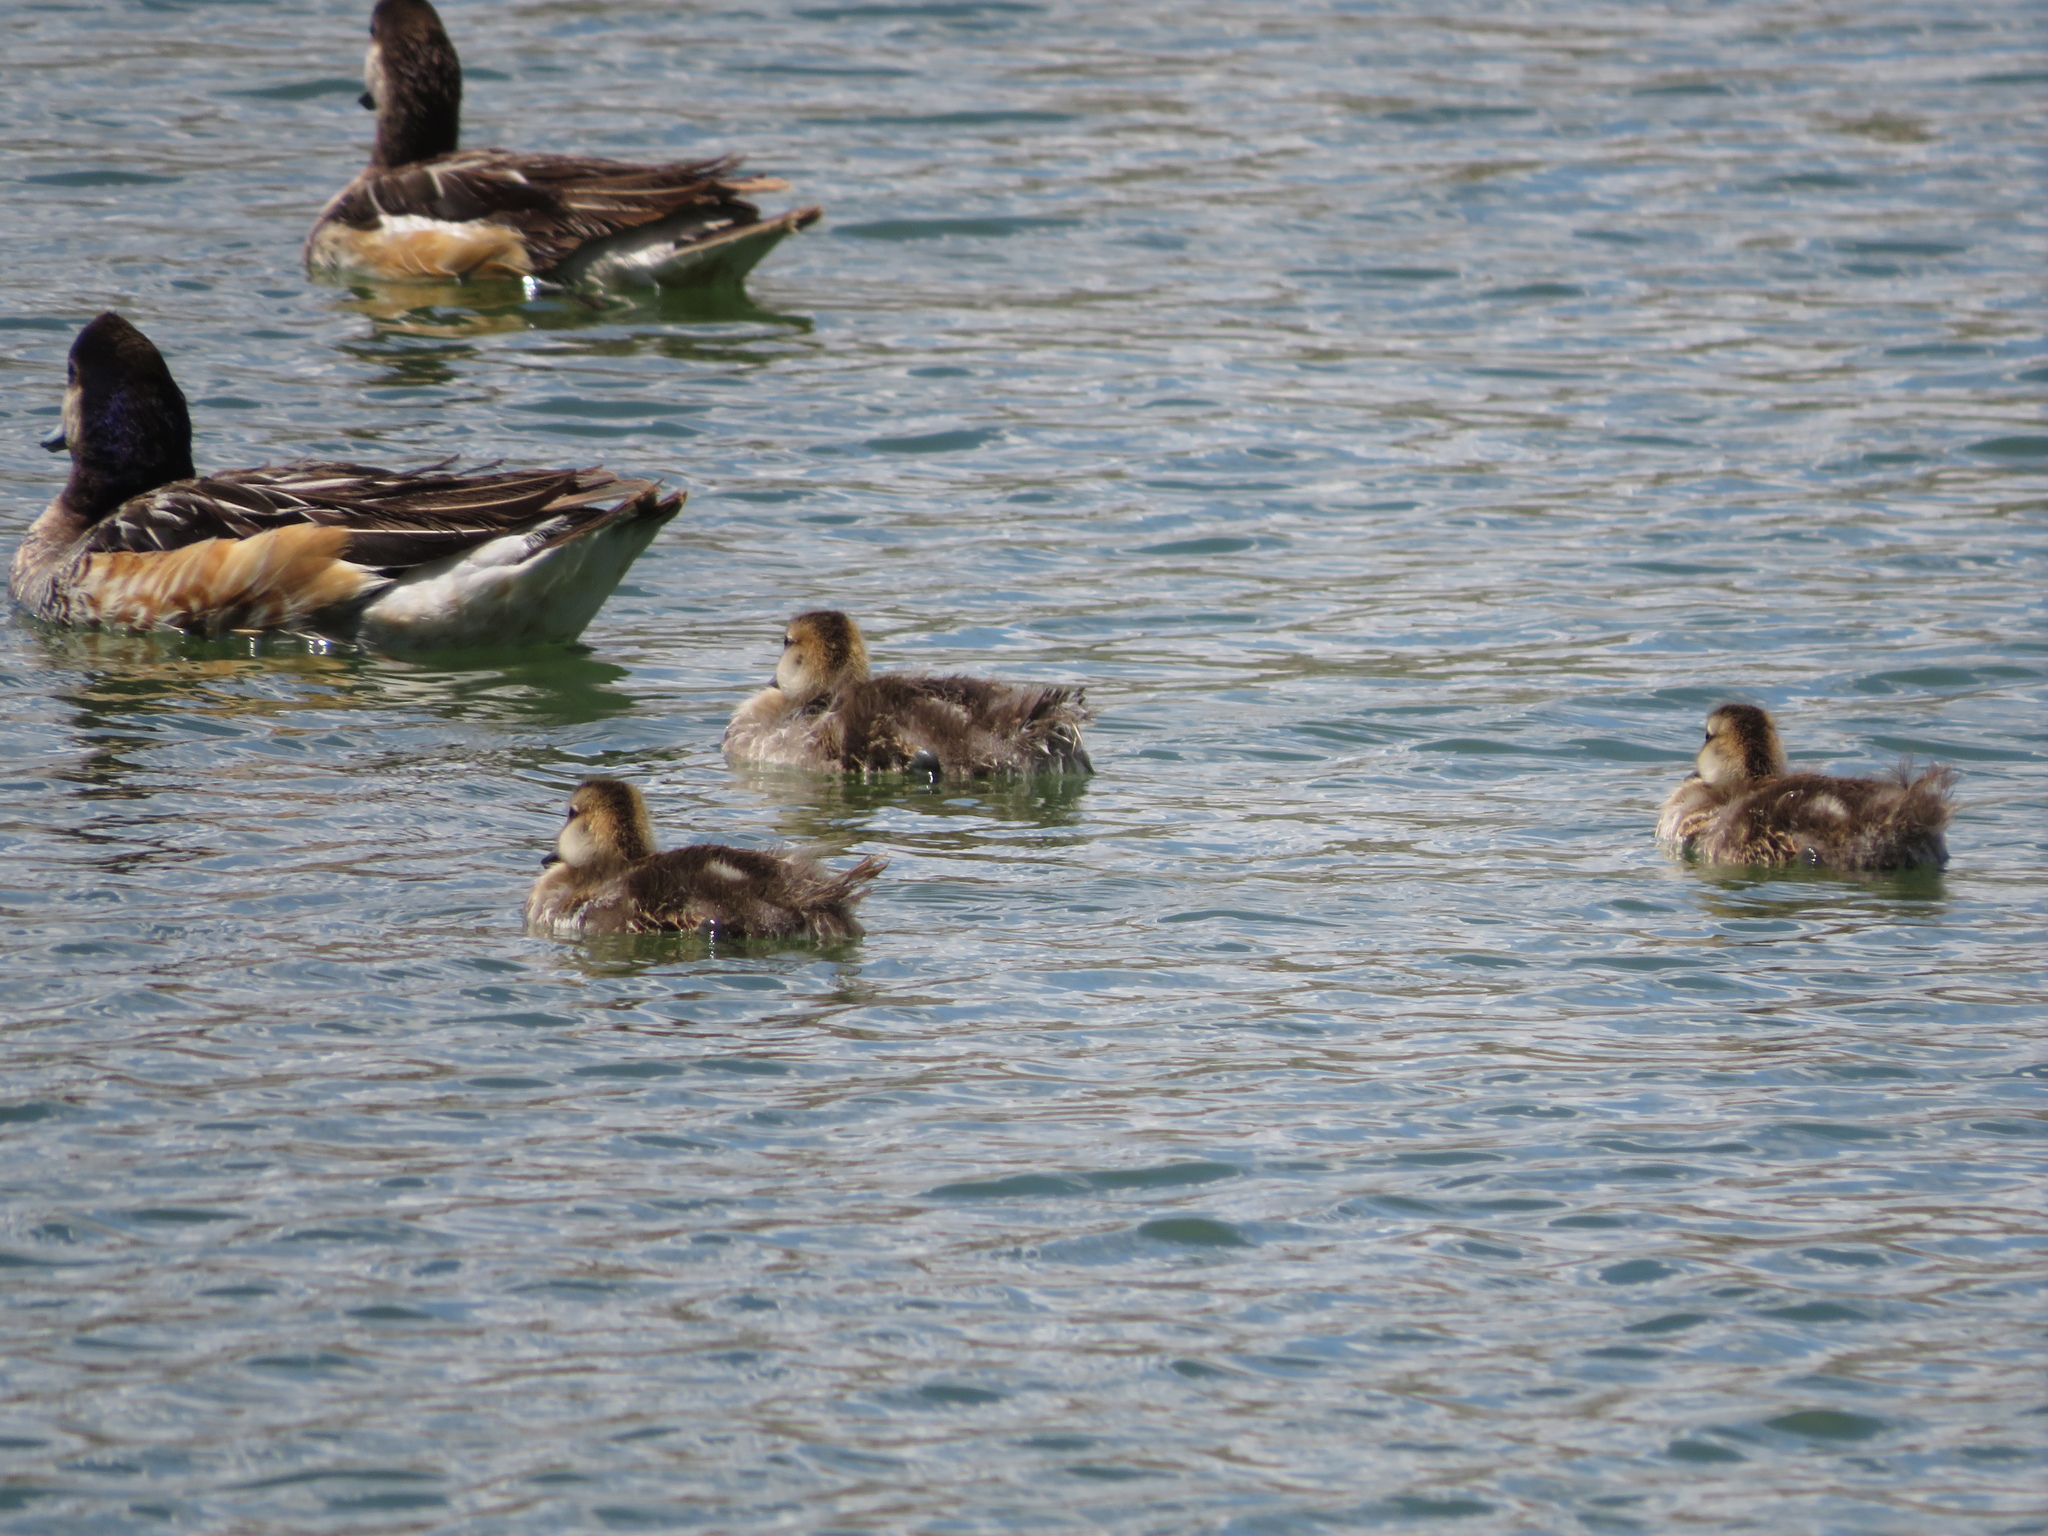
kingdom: Animalia
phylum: Chordata
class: Aves
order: Anseriformes
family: Anatidae
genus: Mareca
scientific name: Mareca sibilatrix
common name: Chiloe wigeon
